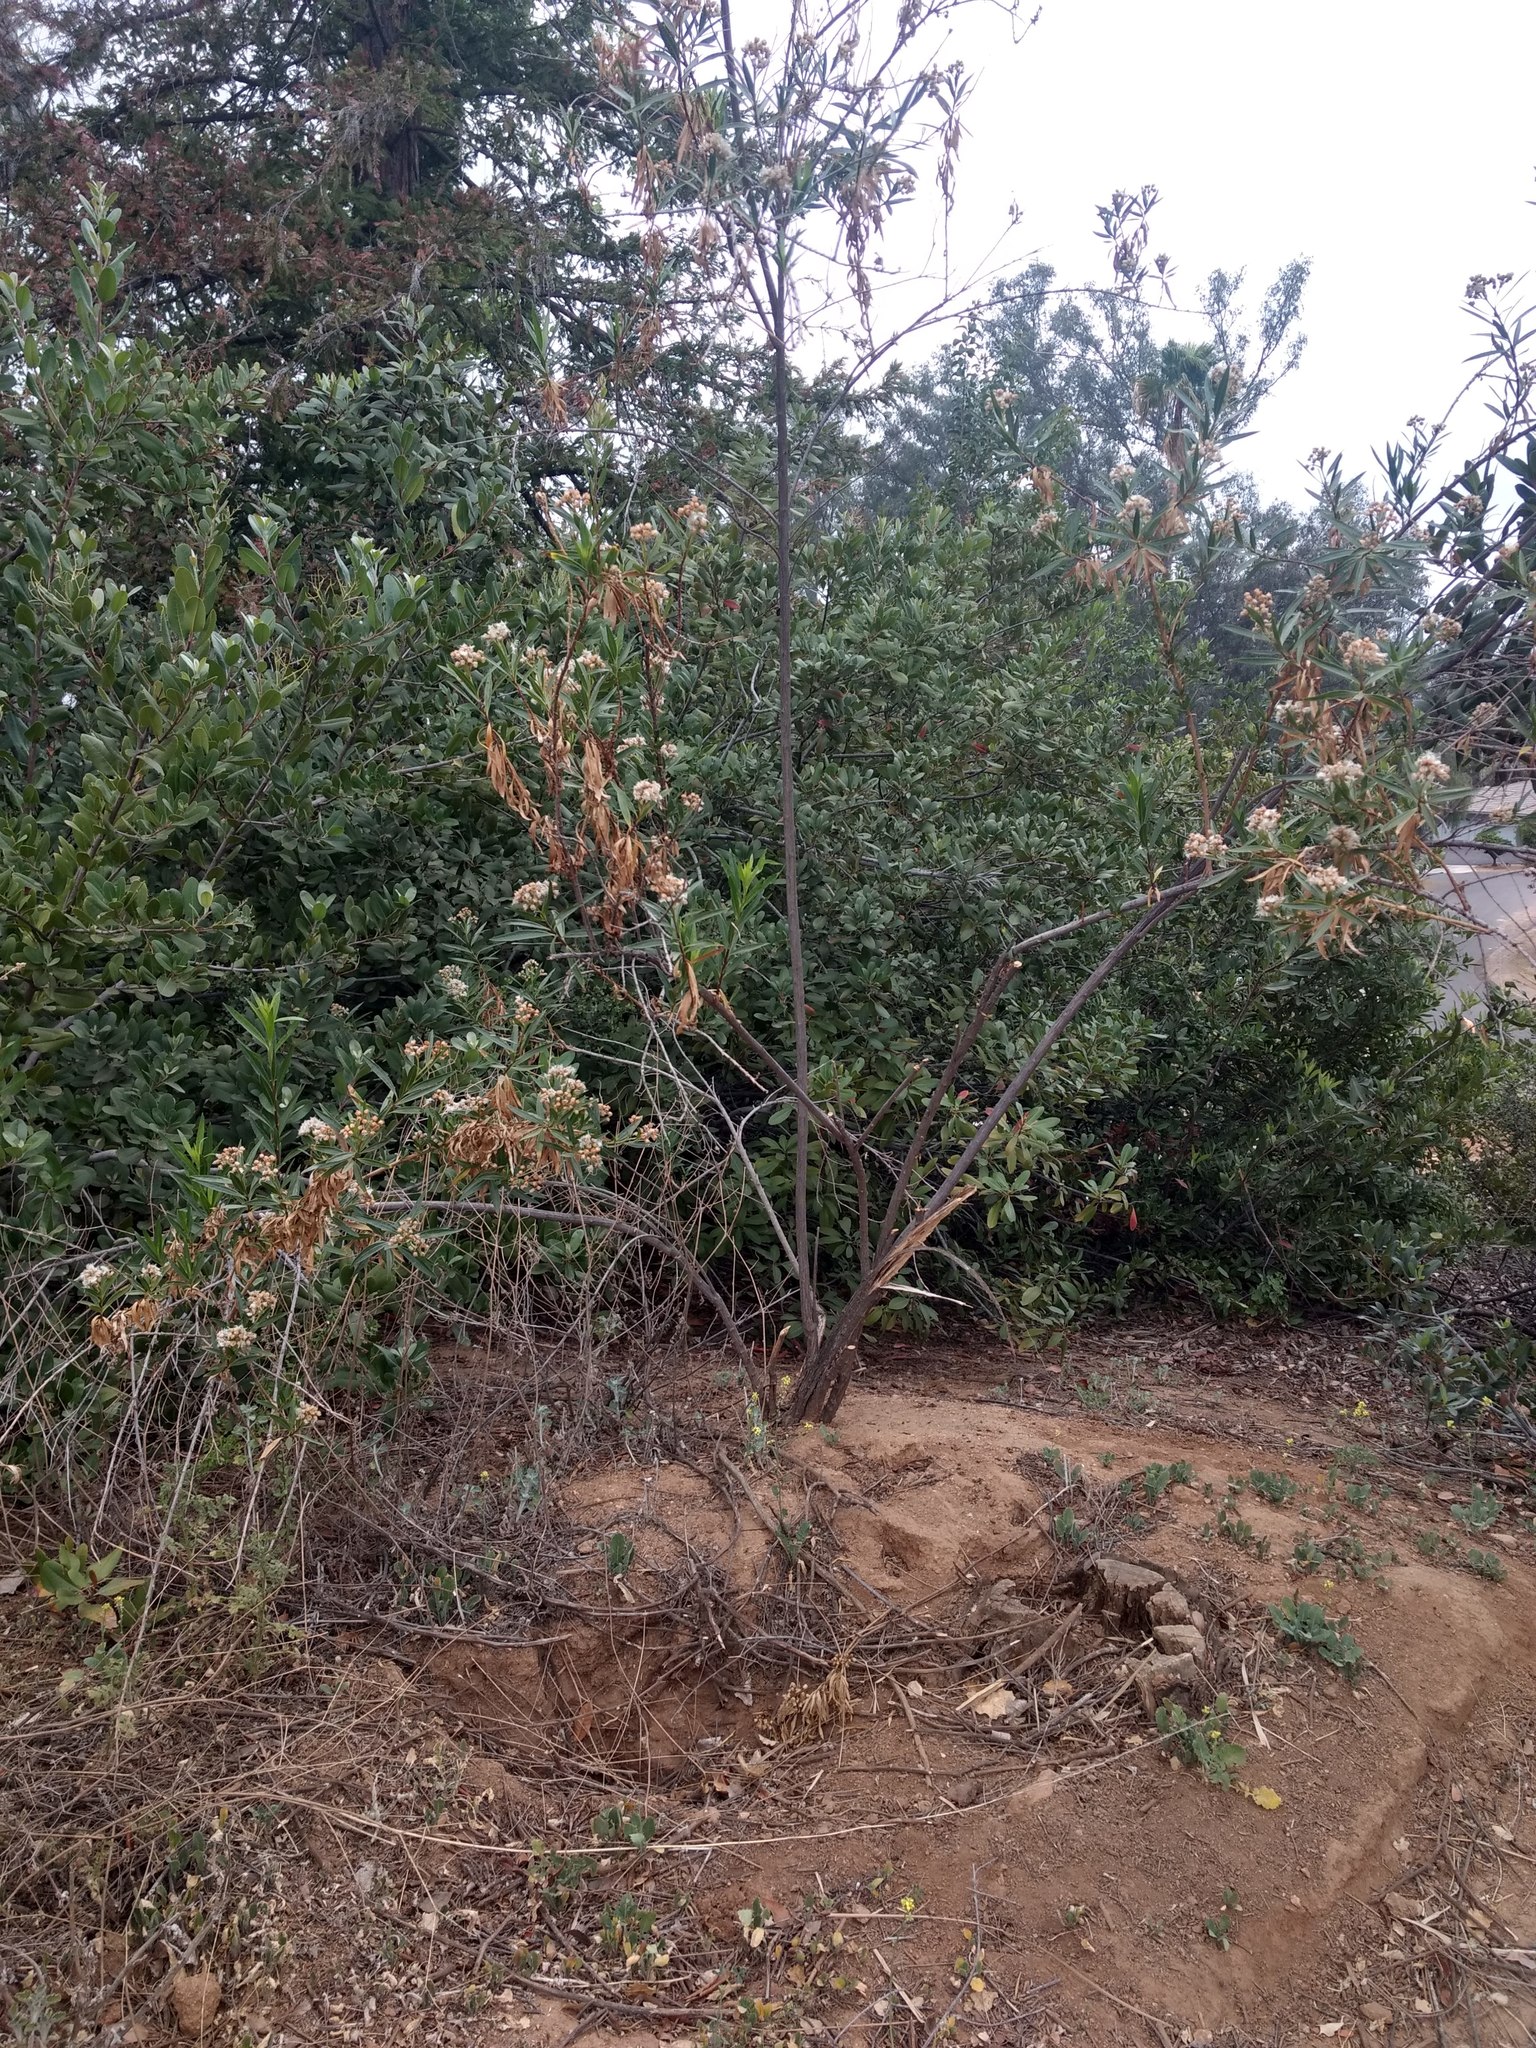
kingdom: Plantae
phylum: Tracheophyta
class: Magnoliopsida
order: Asterales
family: Asteraceae
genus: Baccharis
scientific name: Baccharis salicifolia
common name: Sticky baccharis
